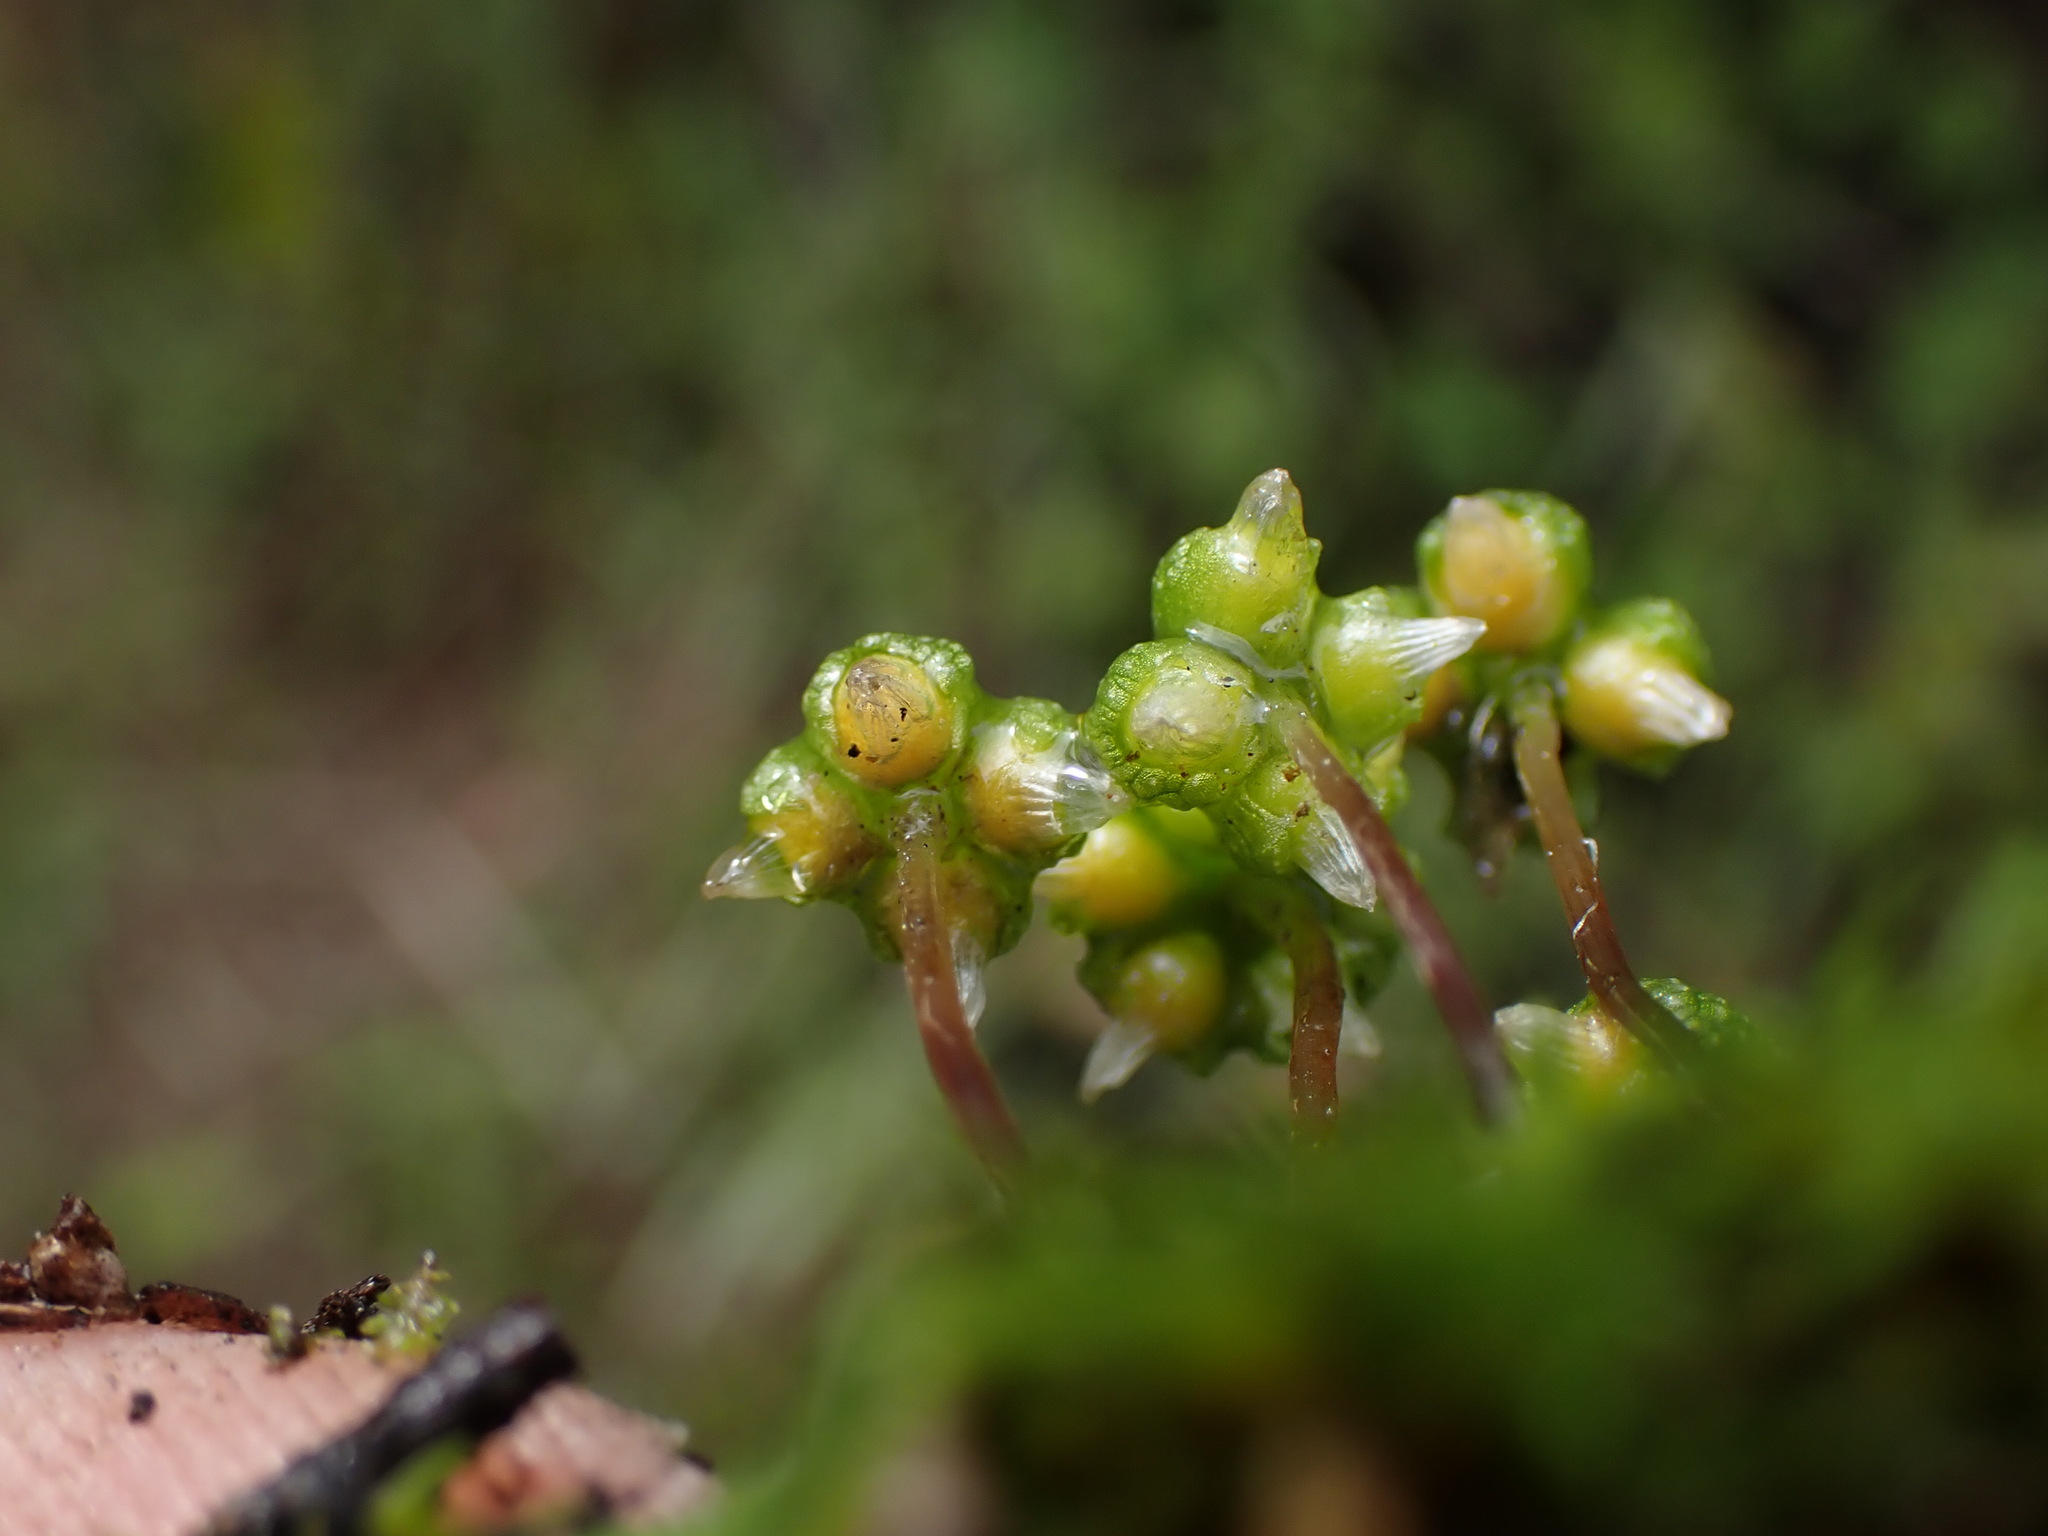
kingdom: Plantae
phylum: Marchantiophyta
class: Marchantiopsida
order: Marchantiales
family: Aytoniaceae
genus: Asterella
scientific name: Asterella californica
